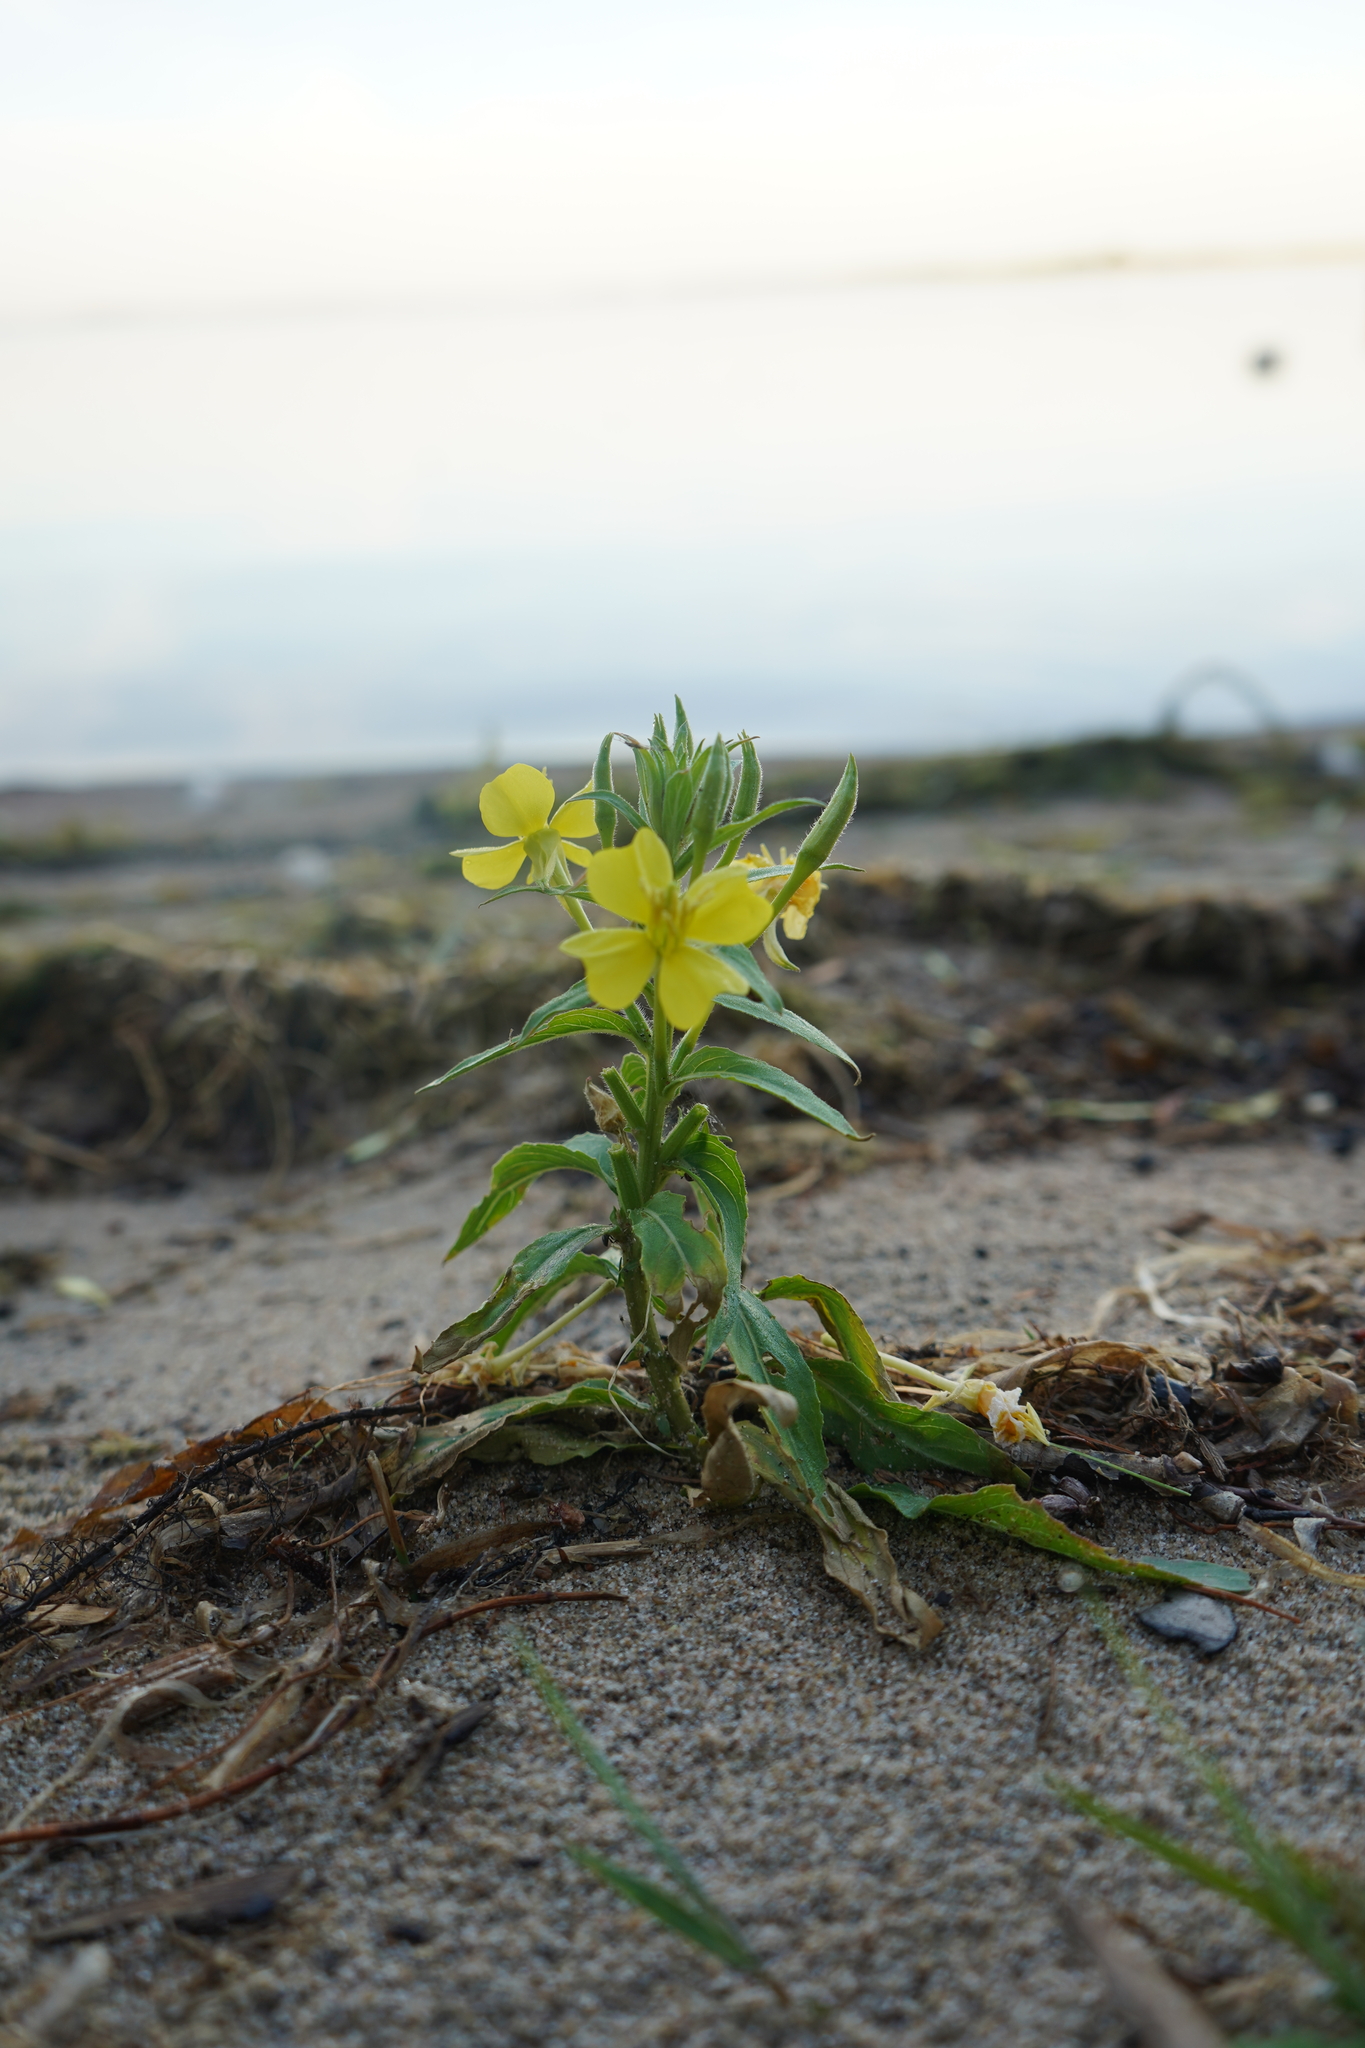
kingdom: Plantae
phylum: Tracheophyta
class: Magnoliopsida
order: Myrtales
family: Onagraceae
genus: Oenothera
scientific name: Oenothera parviflora
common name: Least evening-primrose
